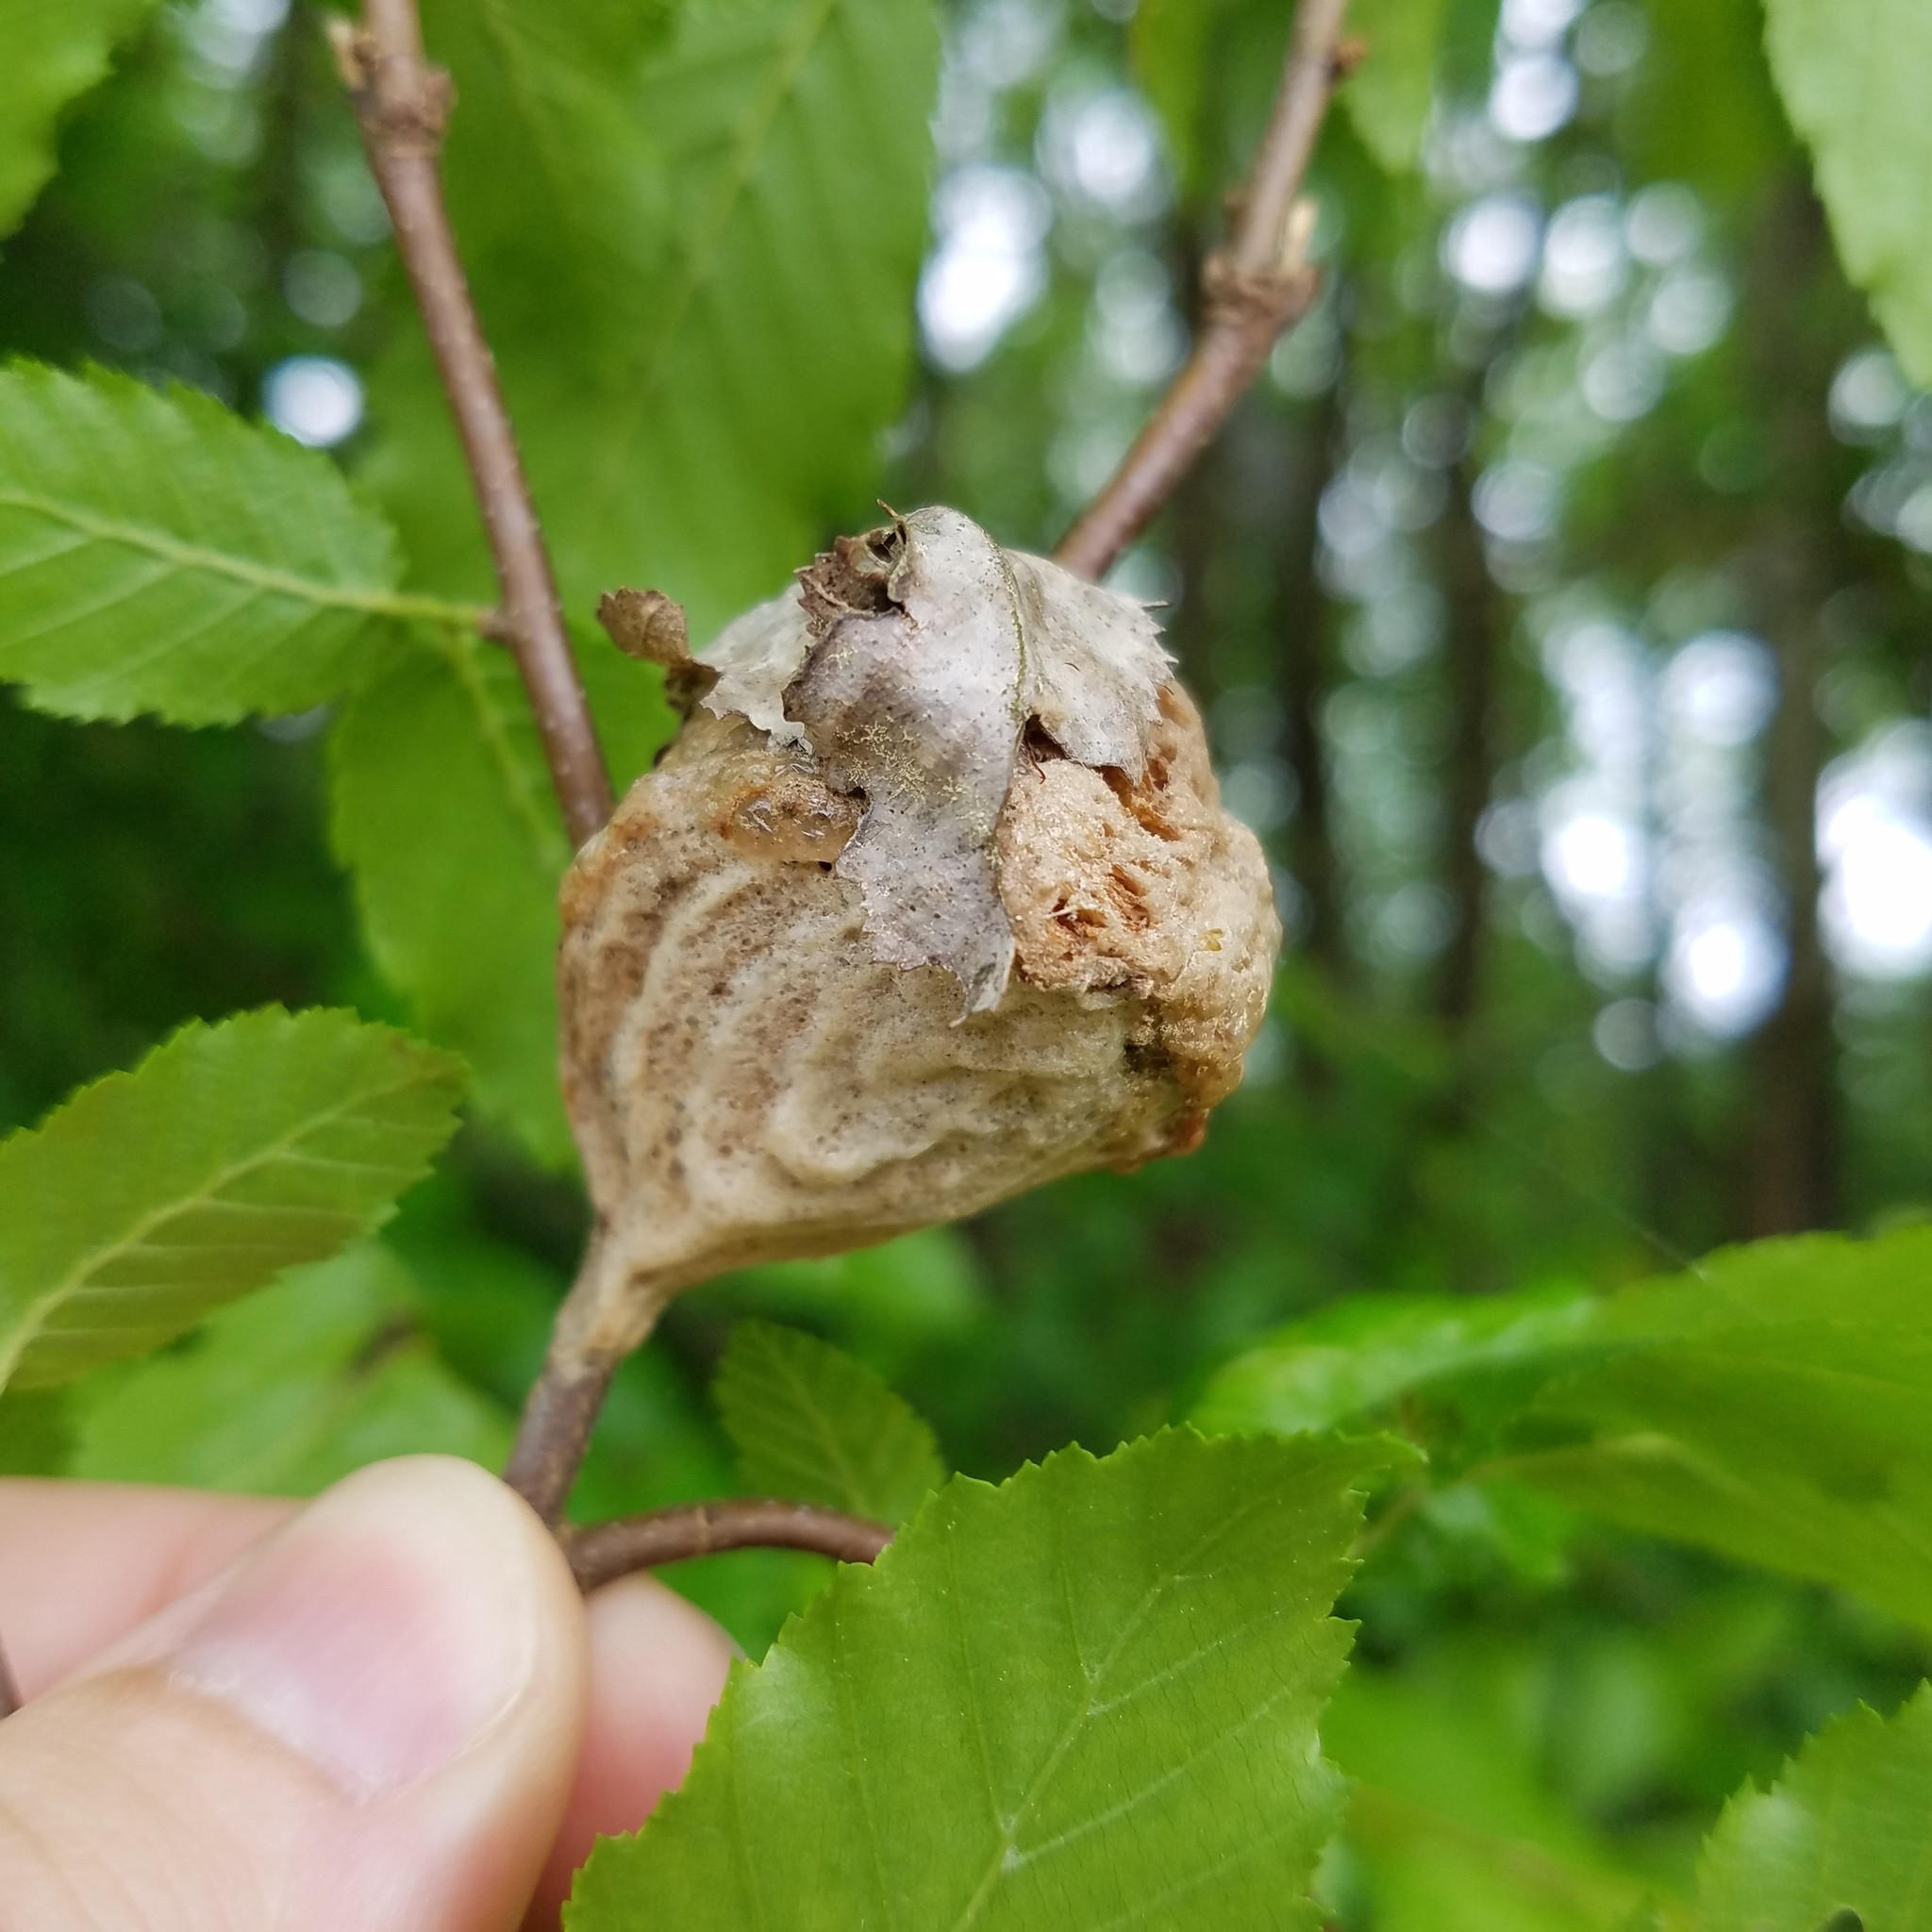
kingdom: Animalia
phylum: Arthropoda
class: Insecta
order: Mantodea
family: Mantidae
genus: Tenodera
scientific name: Tenodera sinensis
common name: Chinese mantis
